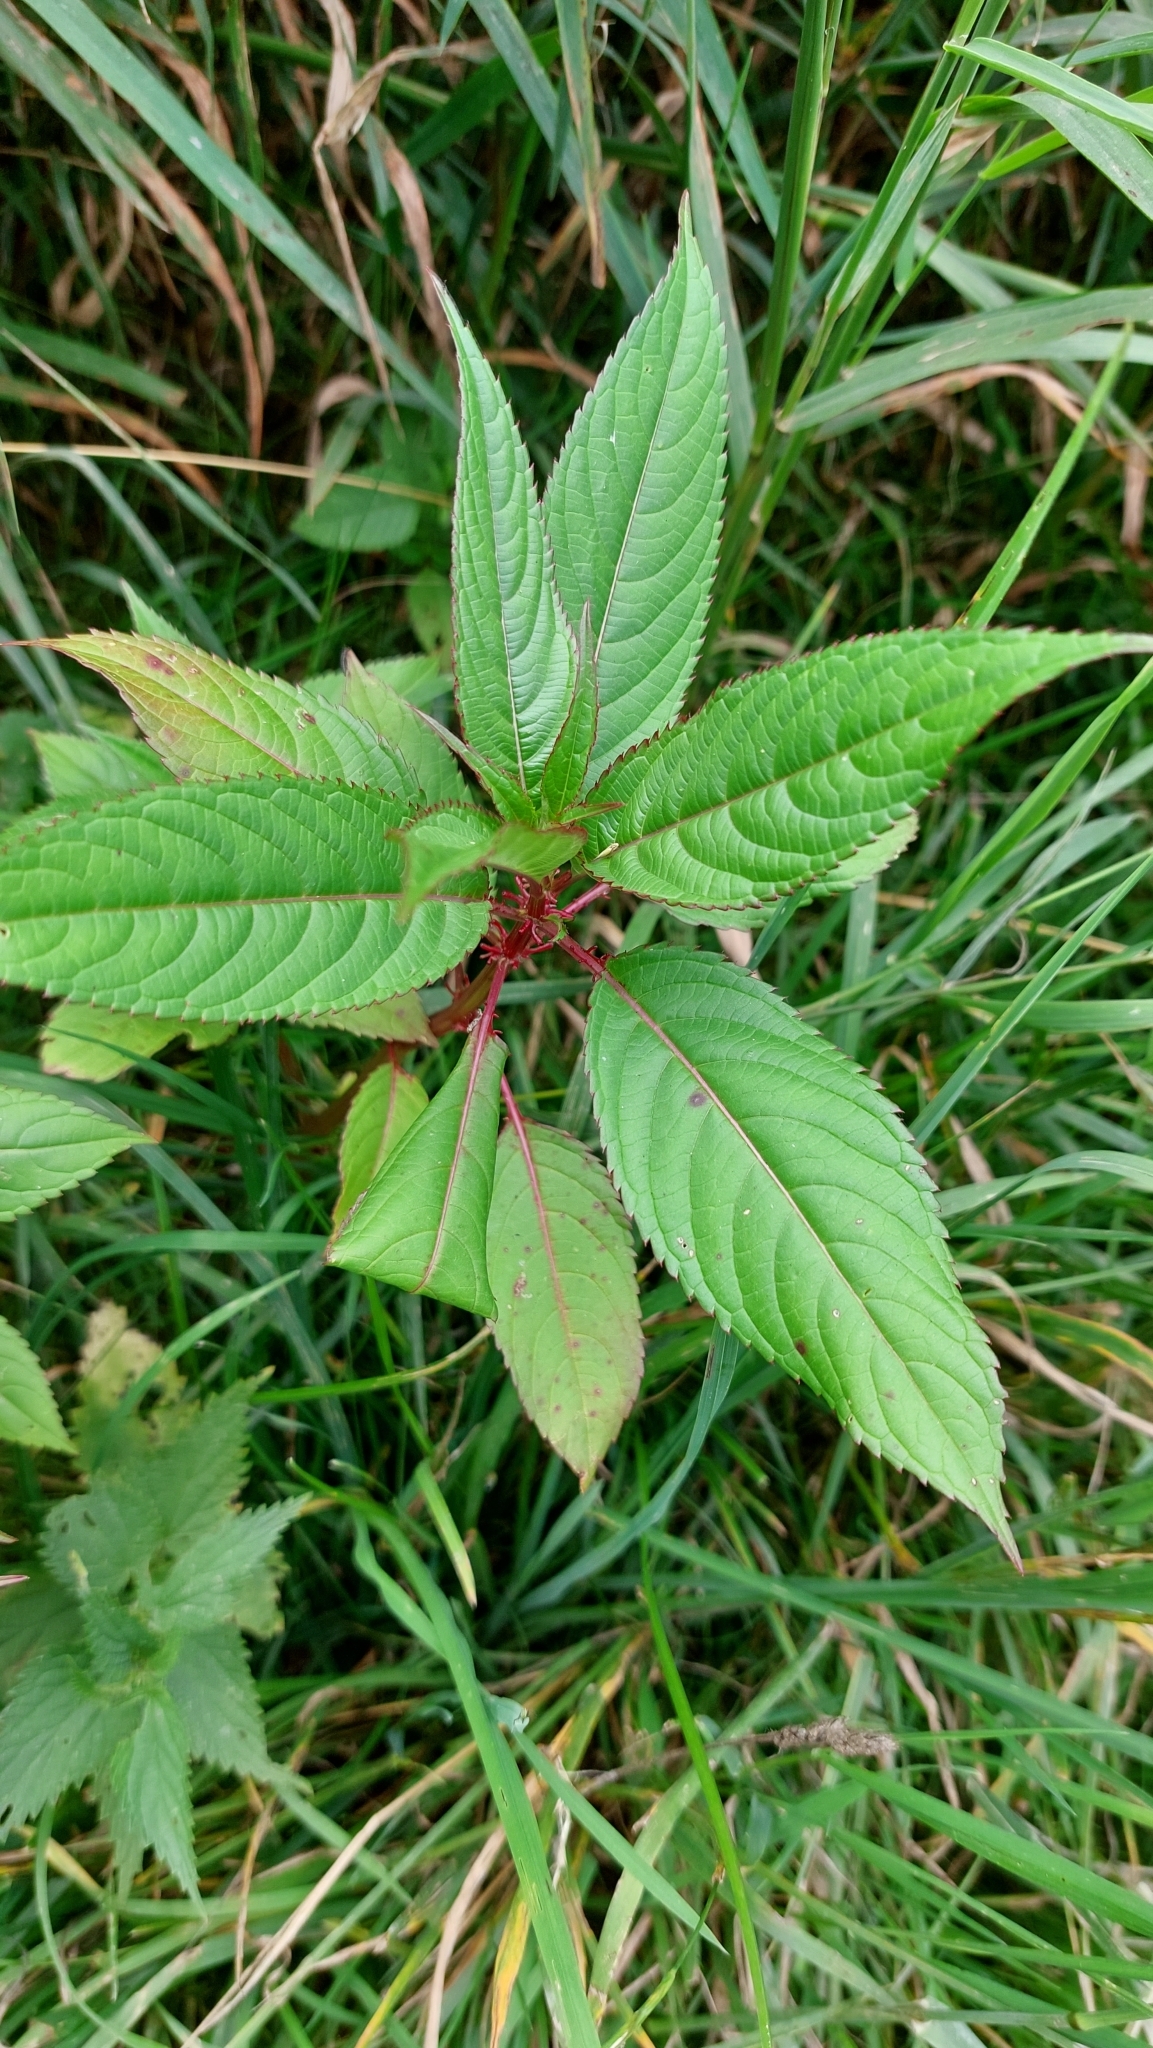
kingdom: Plantae
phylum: Tracheophyta
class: Magnoliopsida
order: Ericales
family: Balsaminaceae
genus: Impatiens
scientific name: Impatiens glandulifera
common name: Himalayan balsam
